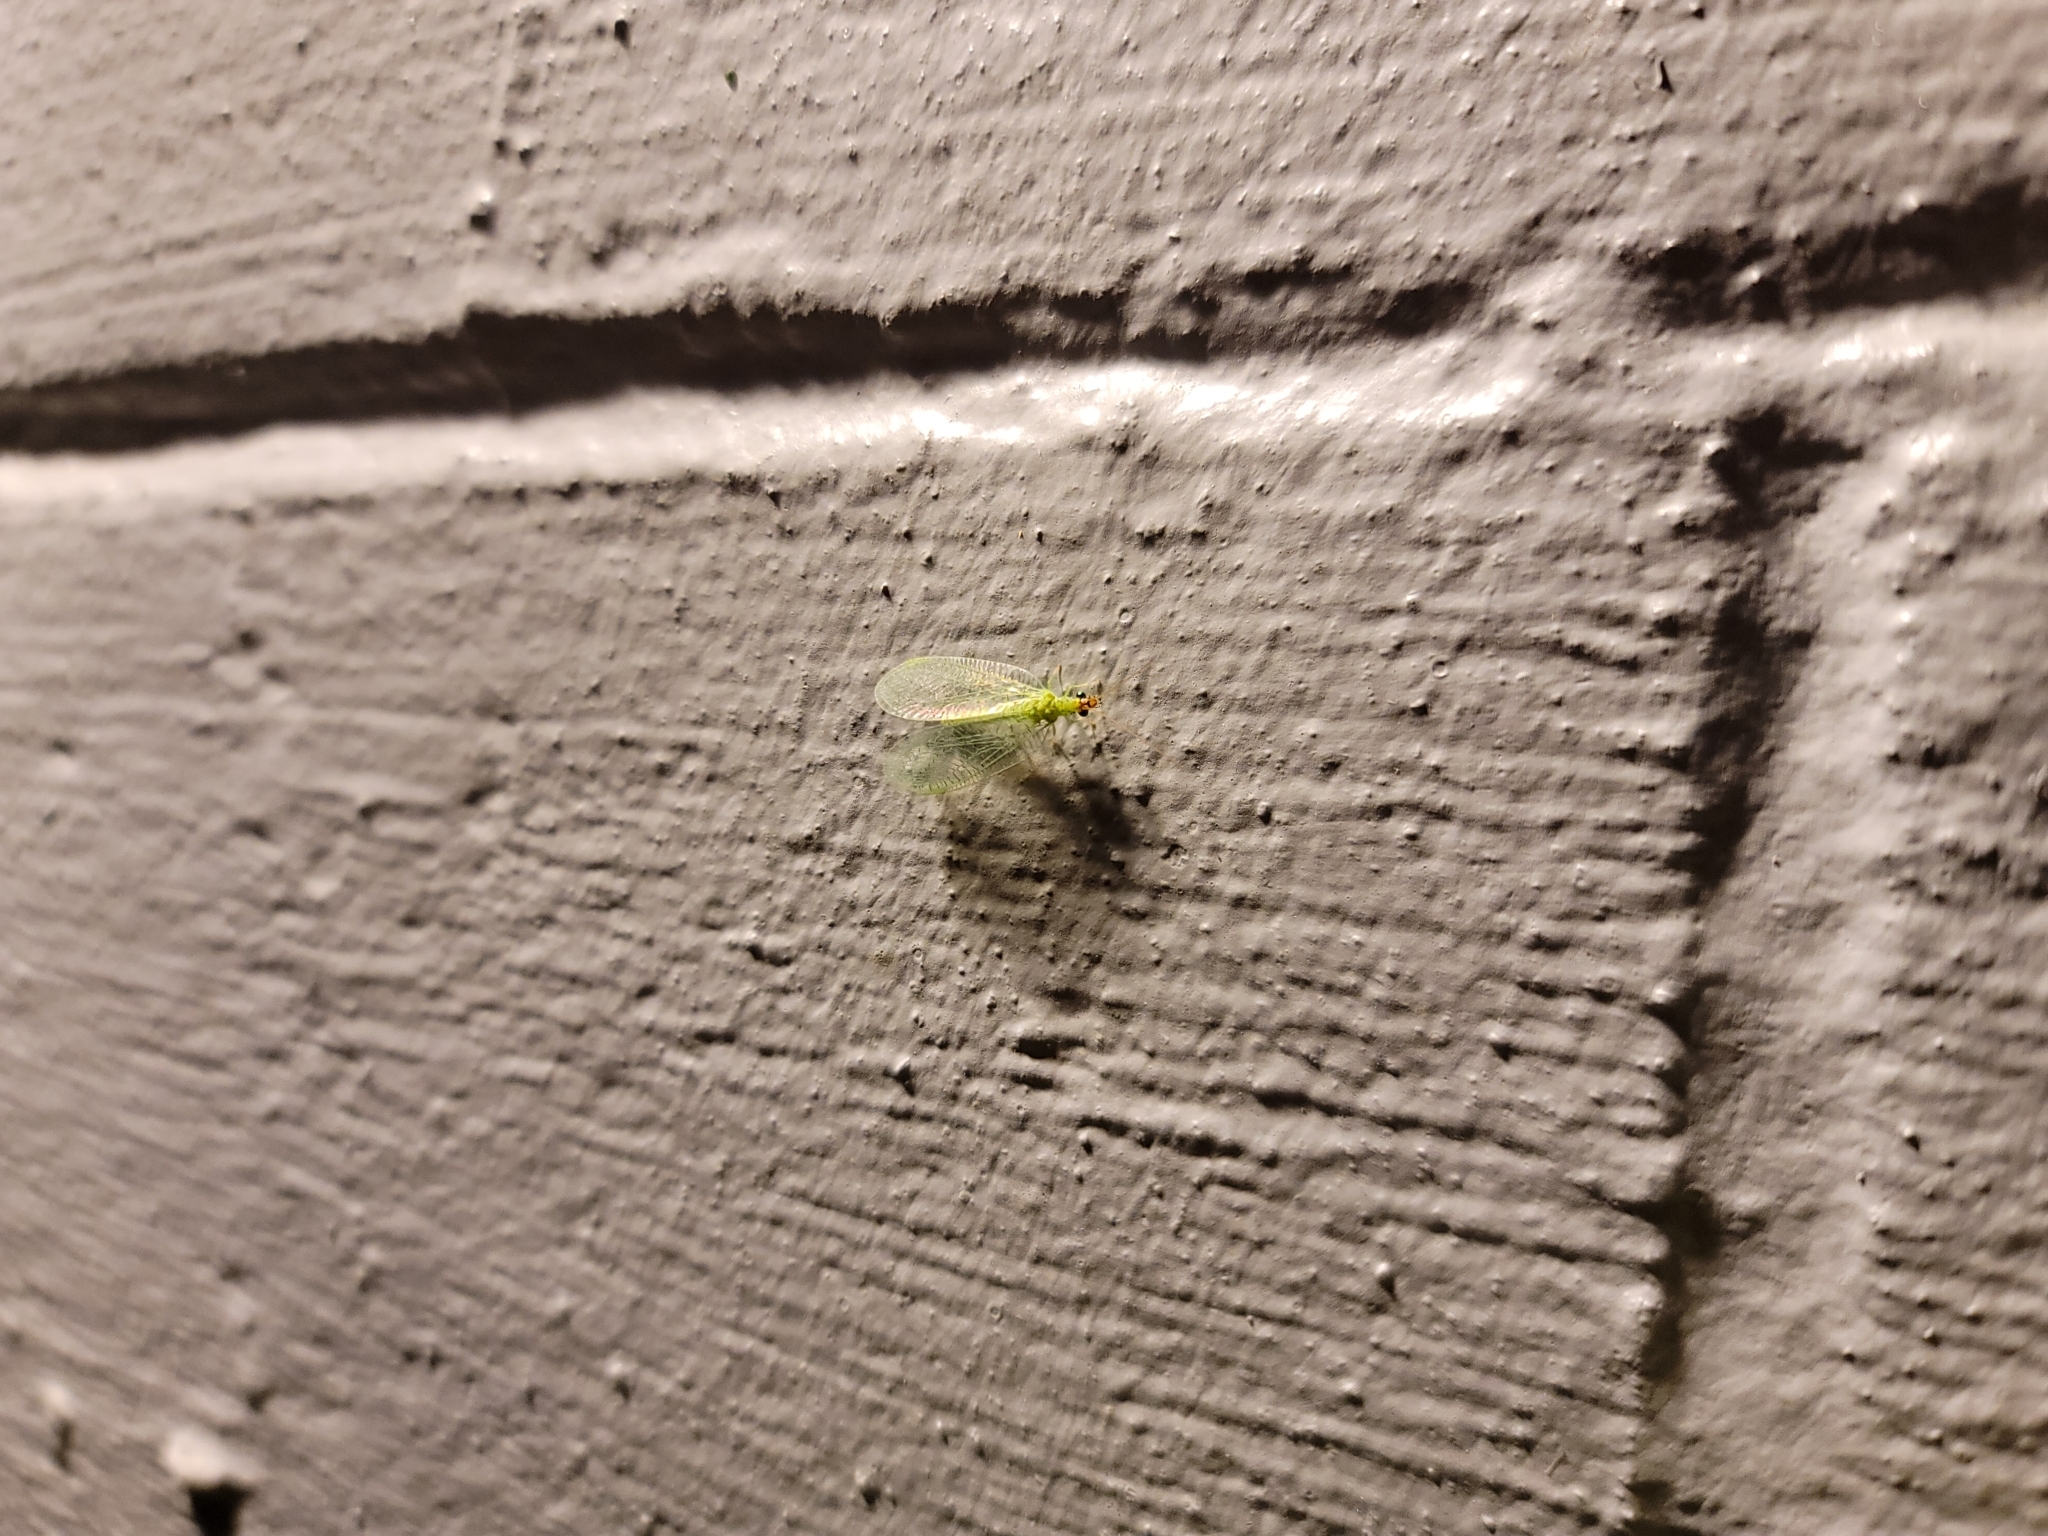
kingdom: Animalia
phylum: Arthropoda
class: Insecta
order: Neuroptera
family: Chrysopidae
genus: Chrysopa
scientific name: Chrysopa oculata
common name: Golden-eyed lacewing
